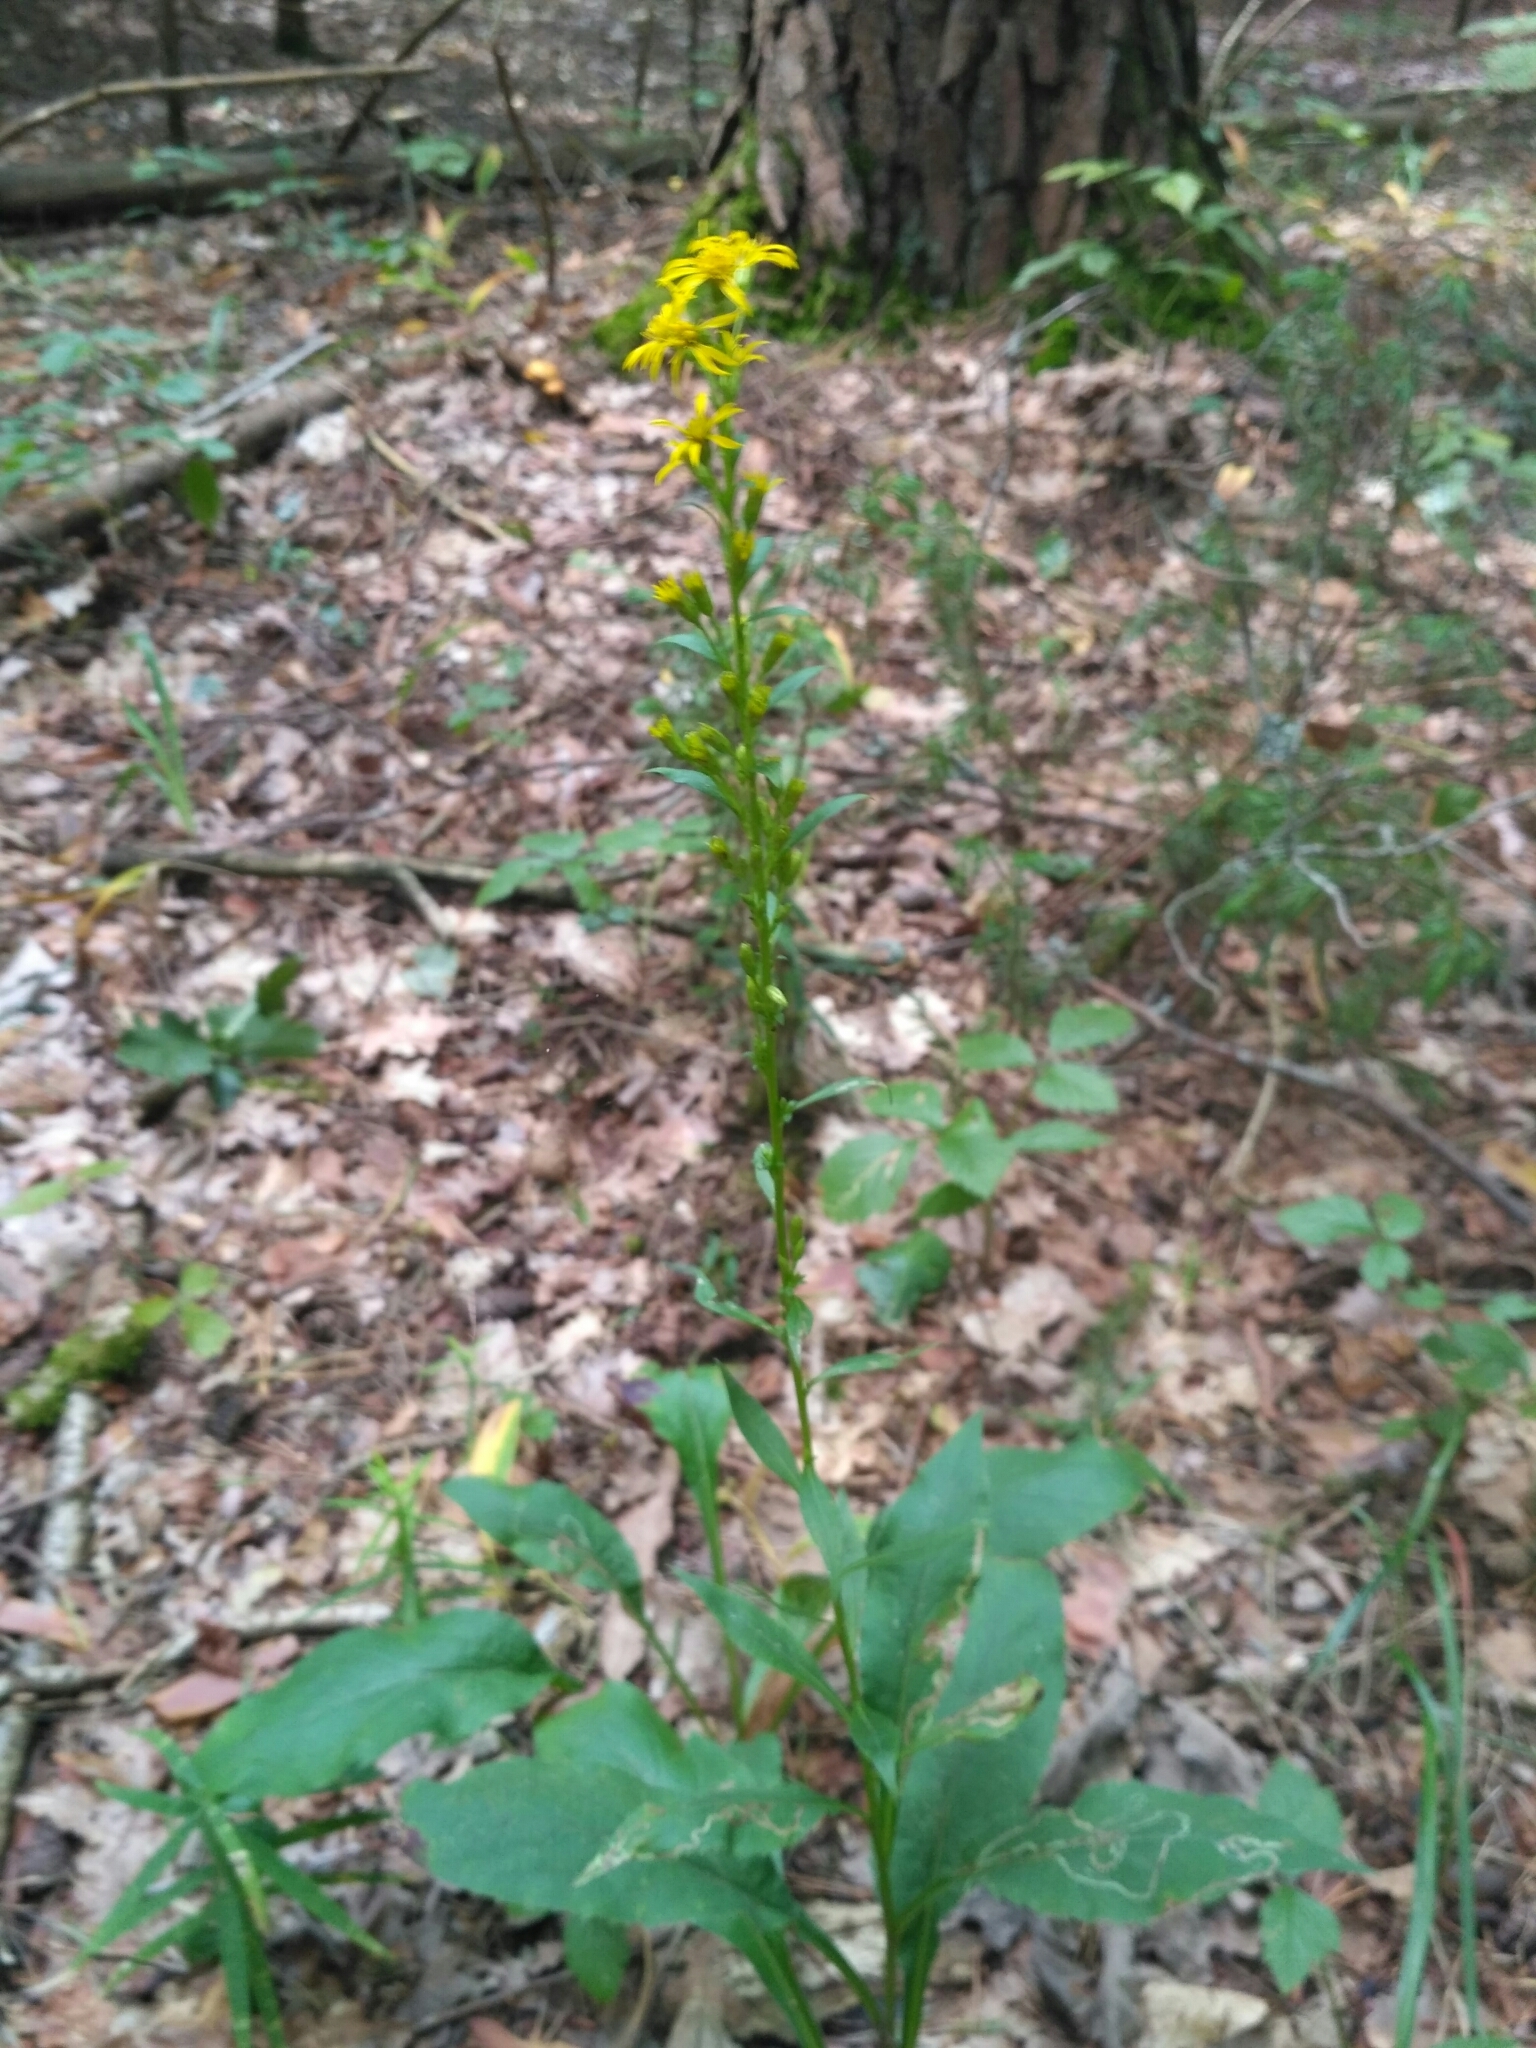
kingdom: Plantae
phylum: Tracheophyta
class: Magnoliopsida
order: Asterales
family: Asteraceae
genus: Solidago
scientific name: Solidago virgaurea
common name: Goldenrod
